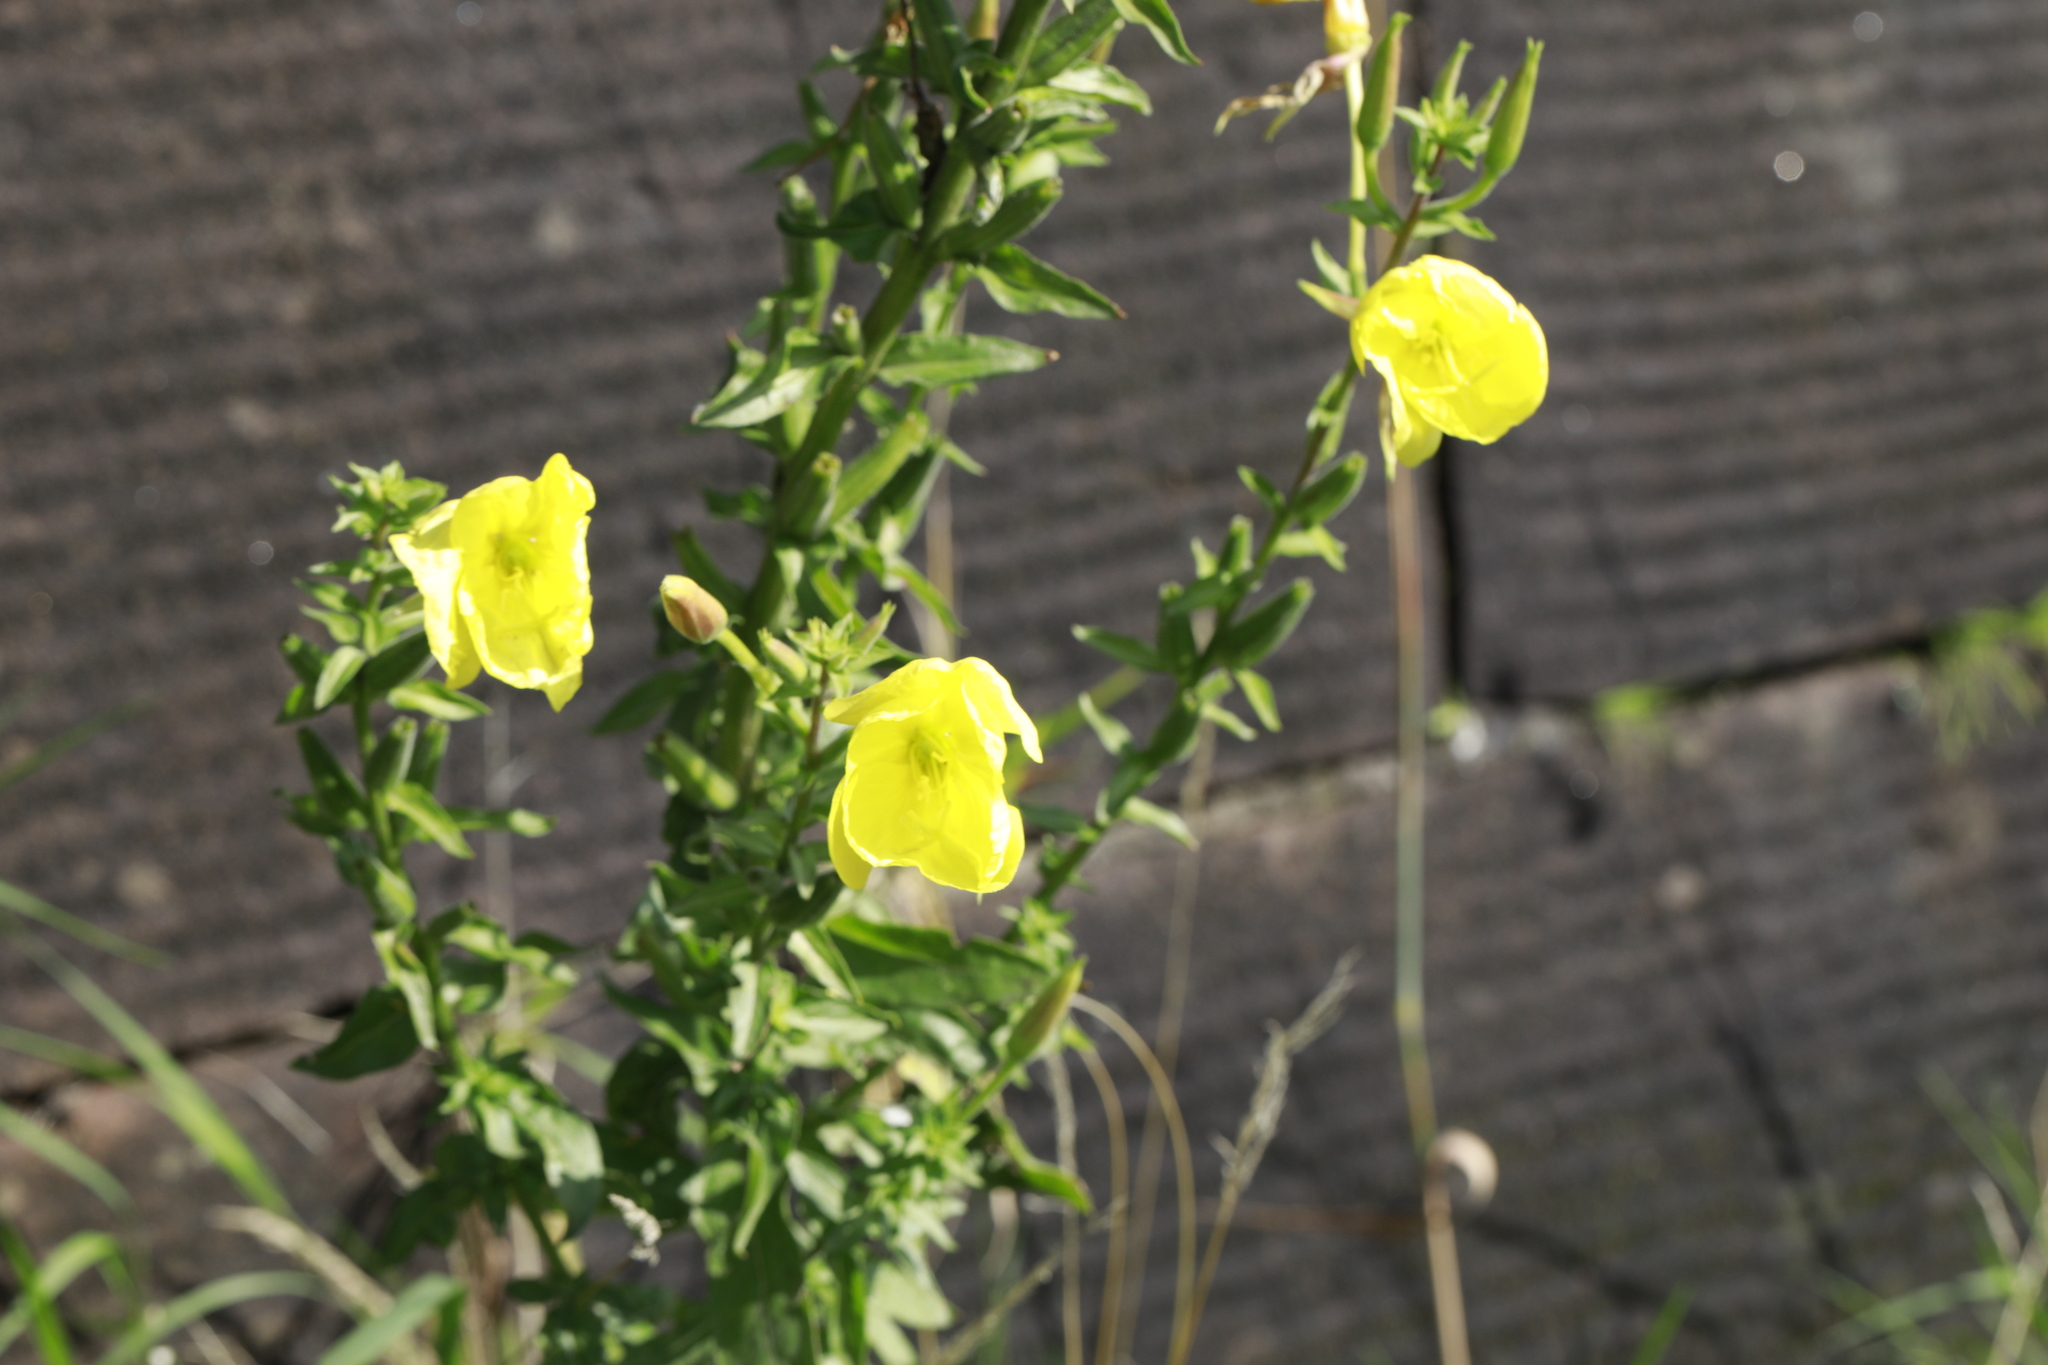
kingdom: Plantae
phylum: Tracheophyta
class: Magnoliopsida
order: Myrtales
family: Onagraceae
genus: Oenothera
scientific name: Oenothera glazioviana
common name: Large-flowered evening-primrose
